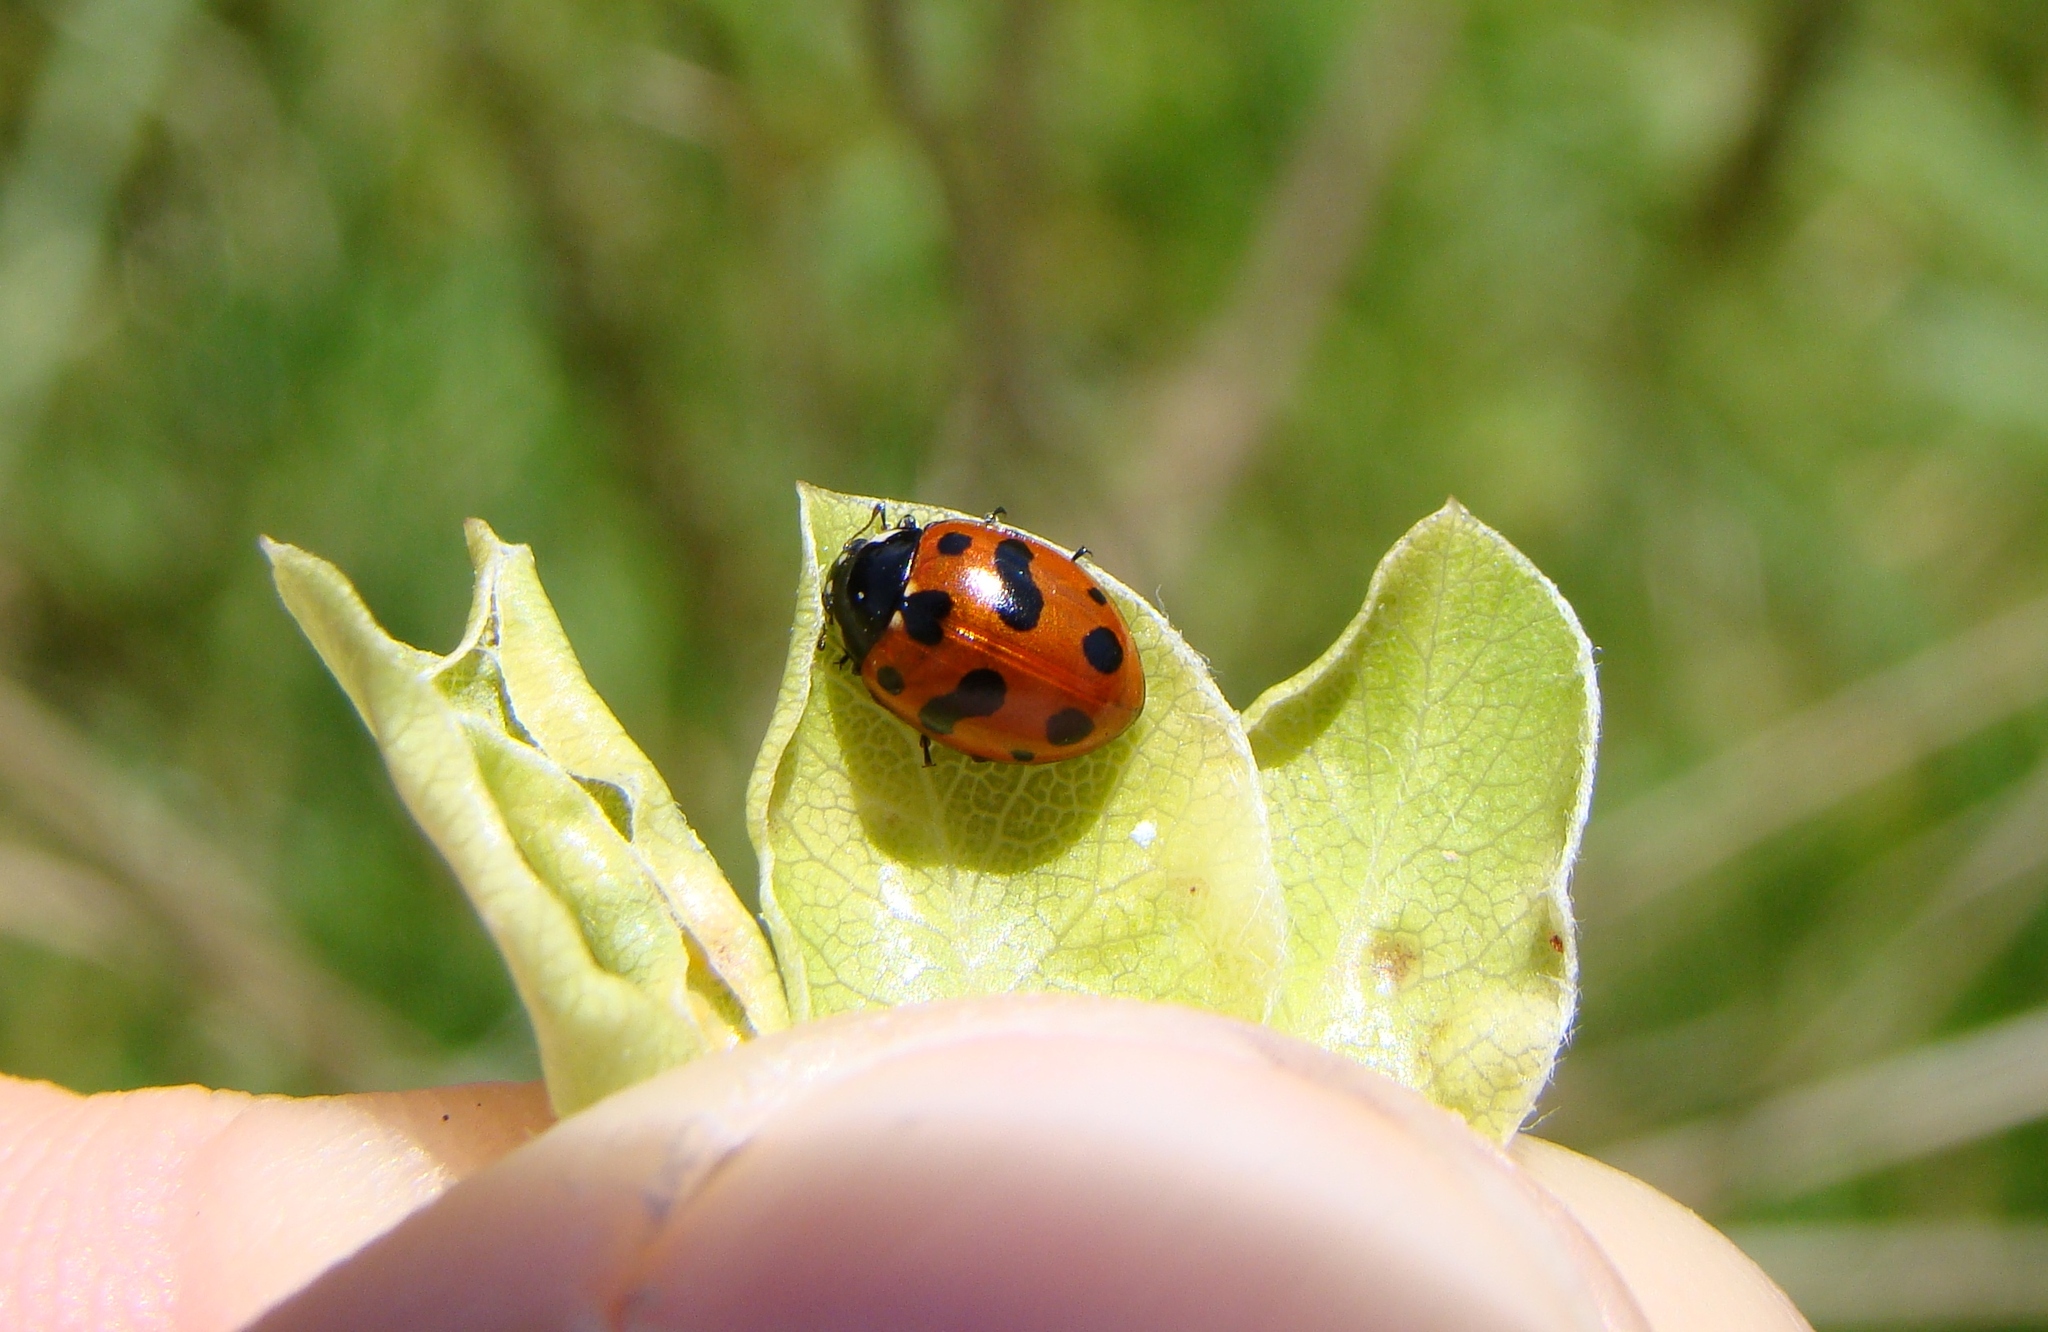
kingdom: Animalia
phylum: Arthropoda
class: Insecta
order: Coleoptera
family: Coccinellidae
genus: Coccinella
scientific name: Coccinella undecimpunctata
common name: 11-spot ladybird
